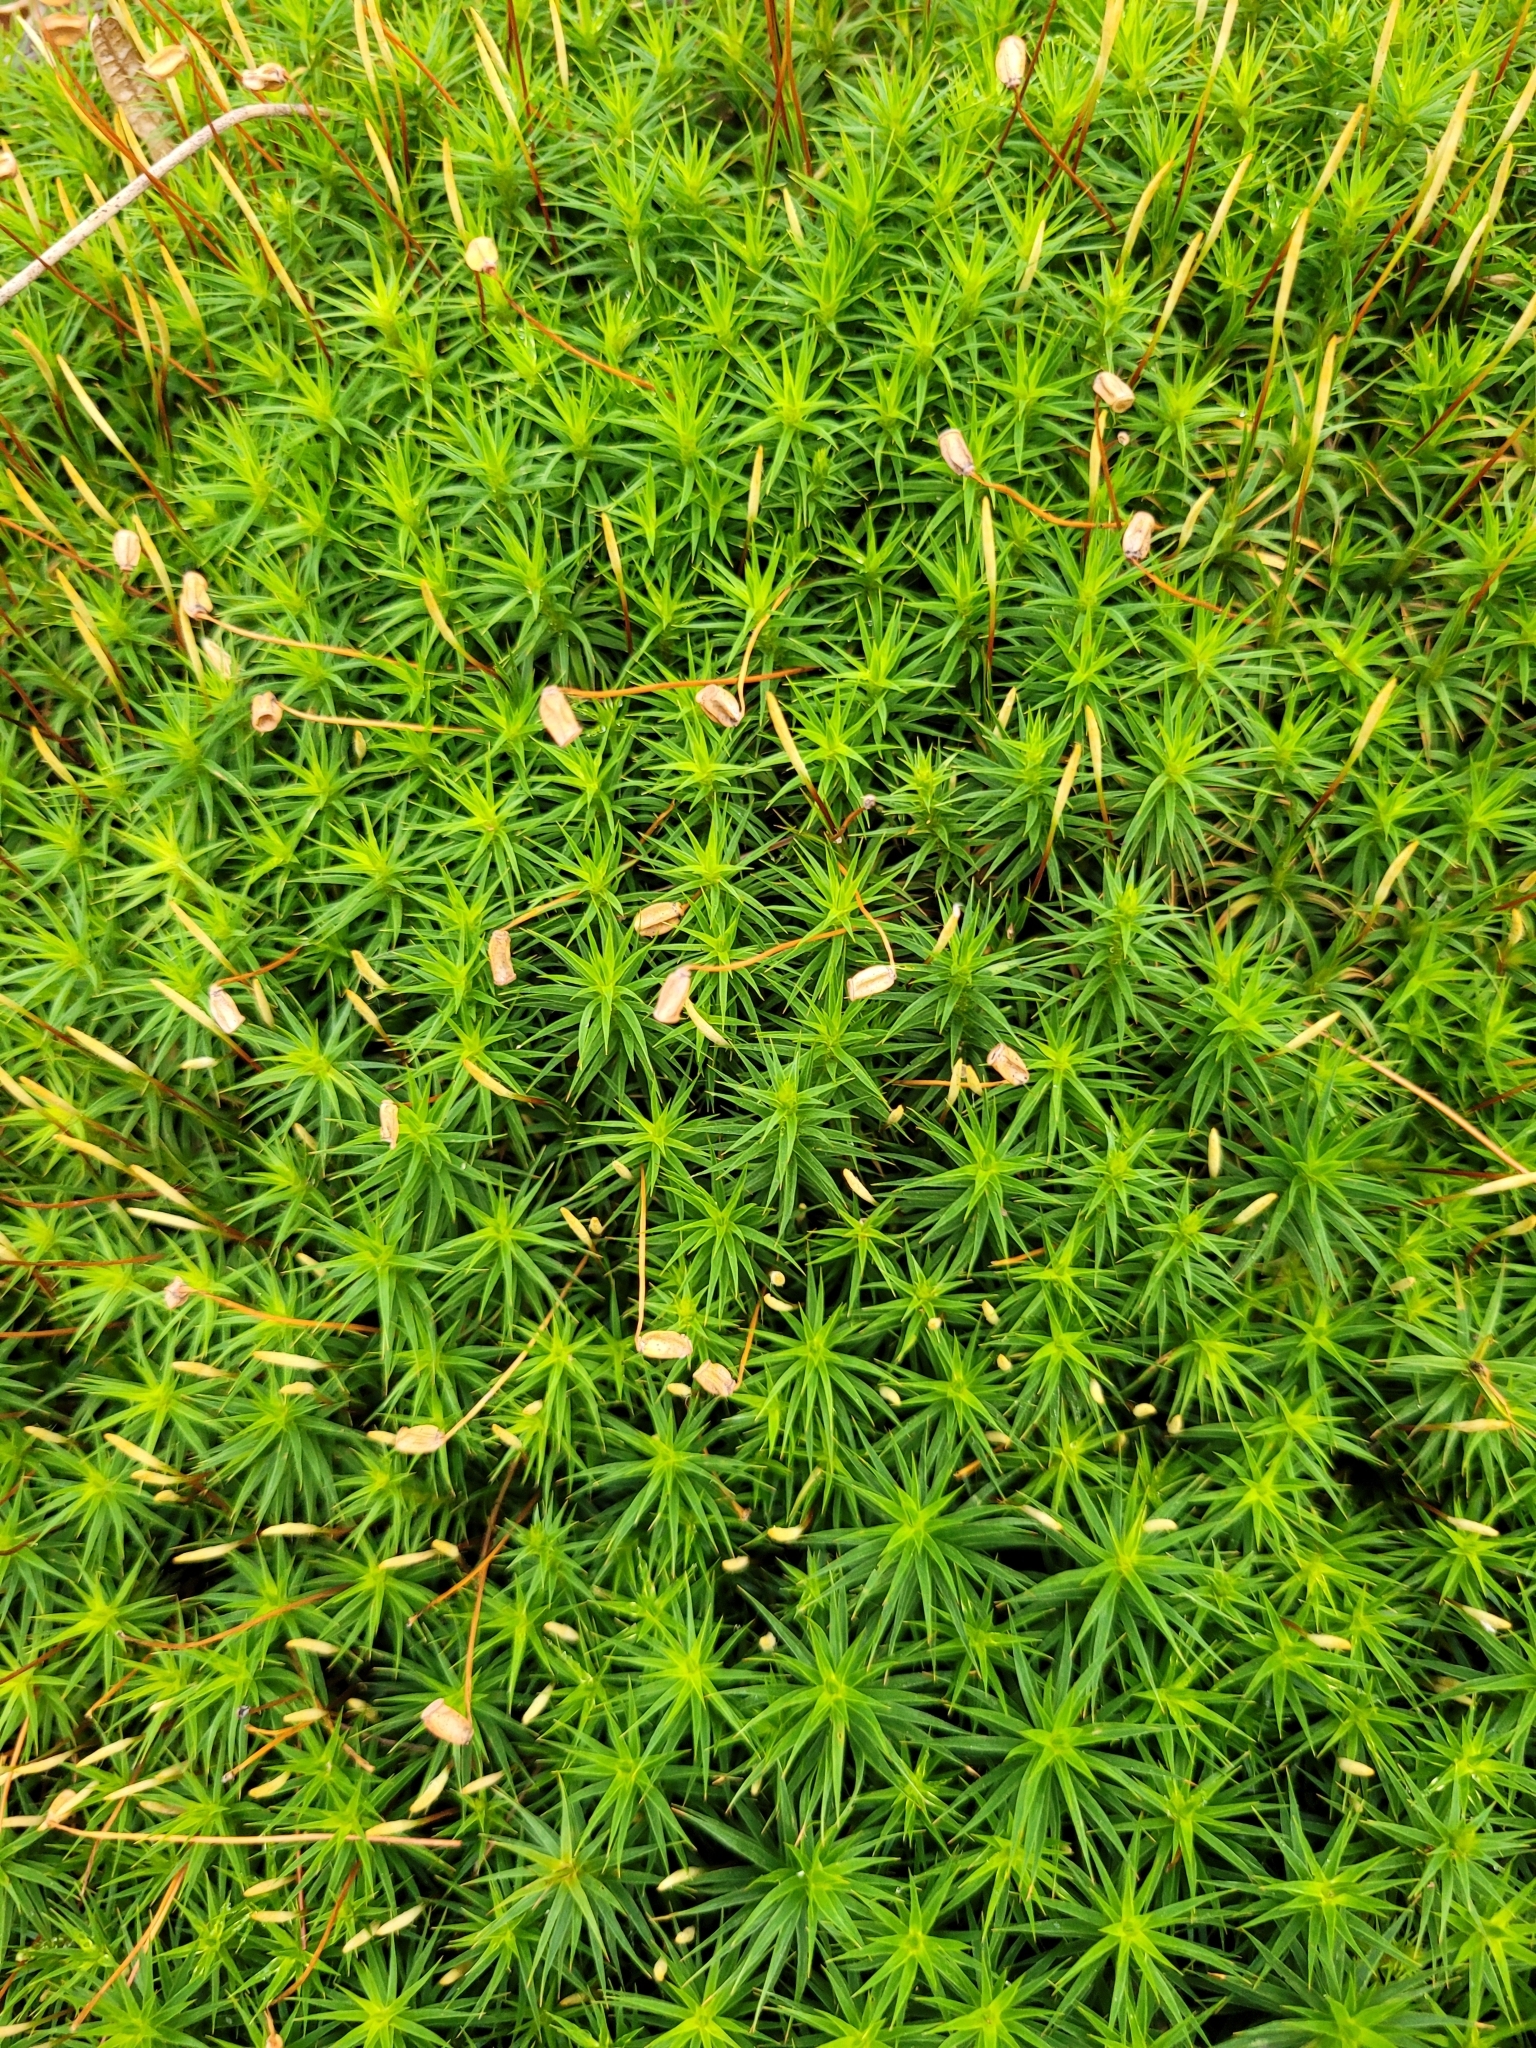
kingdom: Plantae
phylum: Bryophyta
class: Polytrichopsida
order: Polytrichales
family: Polytrichaceae
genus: Polytrichum
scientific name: Polytrichum formosum
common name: Bank haircap moss
